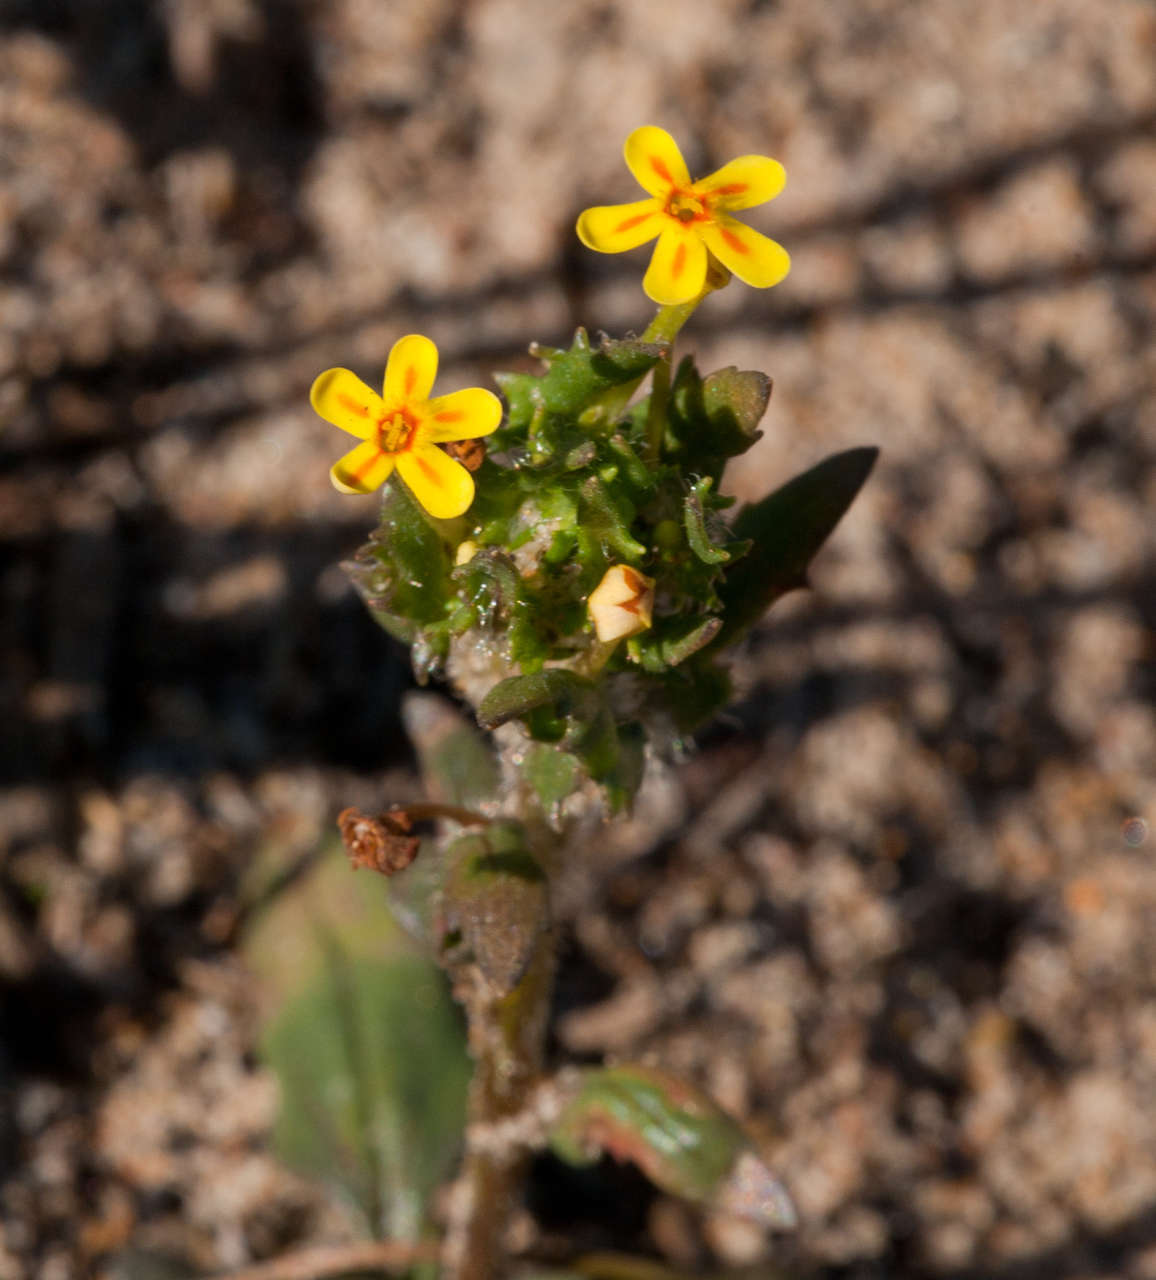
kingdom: Plantae
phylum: Tracheophyta
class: Magnoliopsida
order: Lamiales
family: Scrophulariaceae
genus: Zaluzianskya
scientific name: Zaluzianskya divaricata
